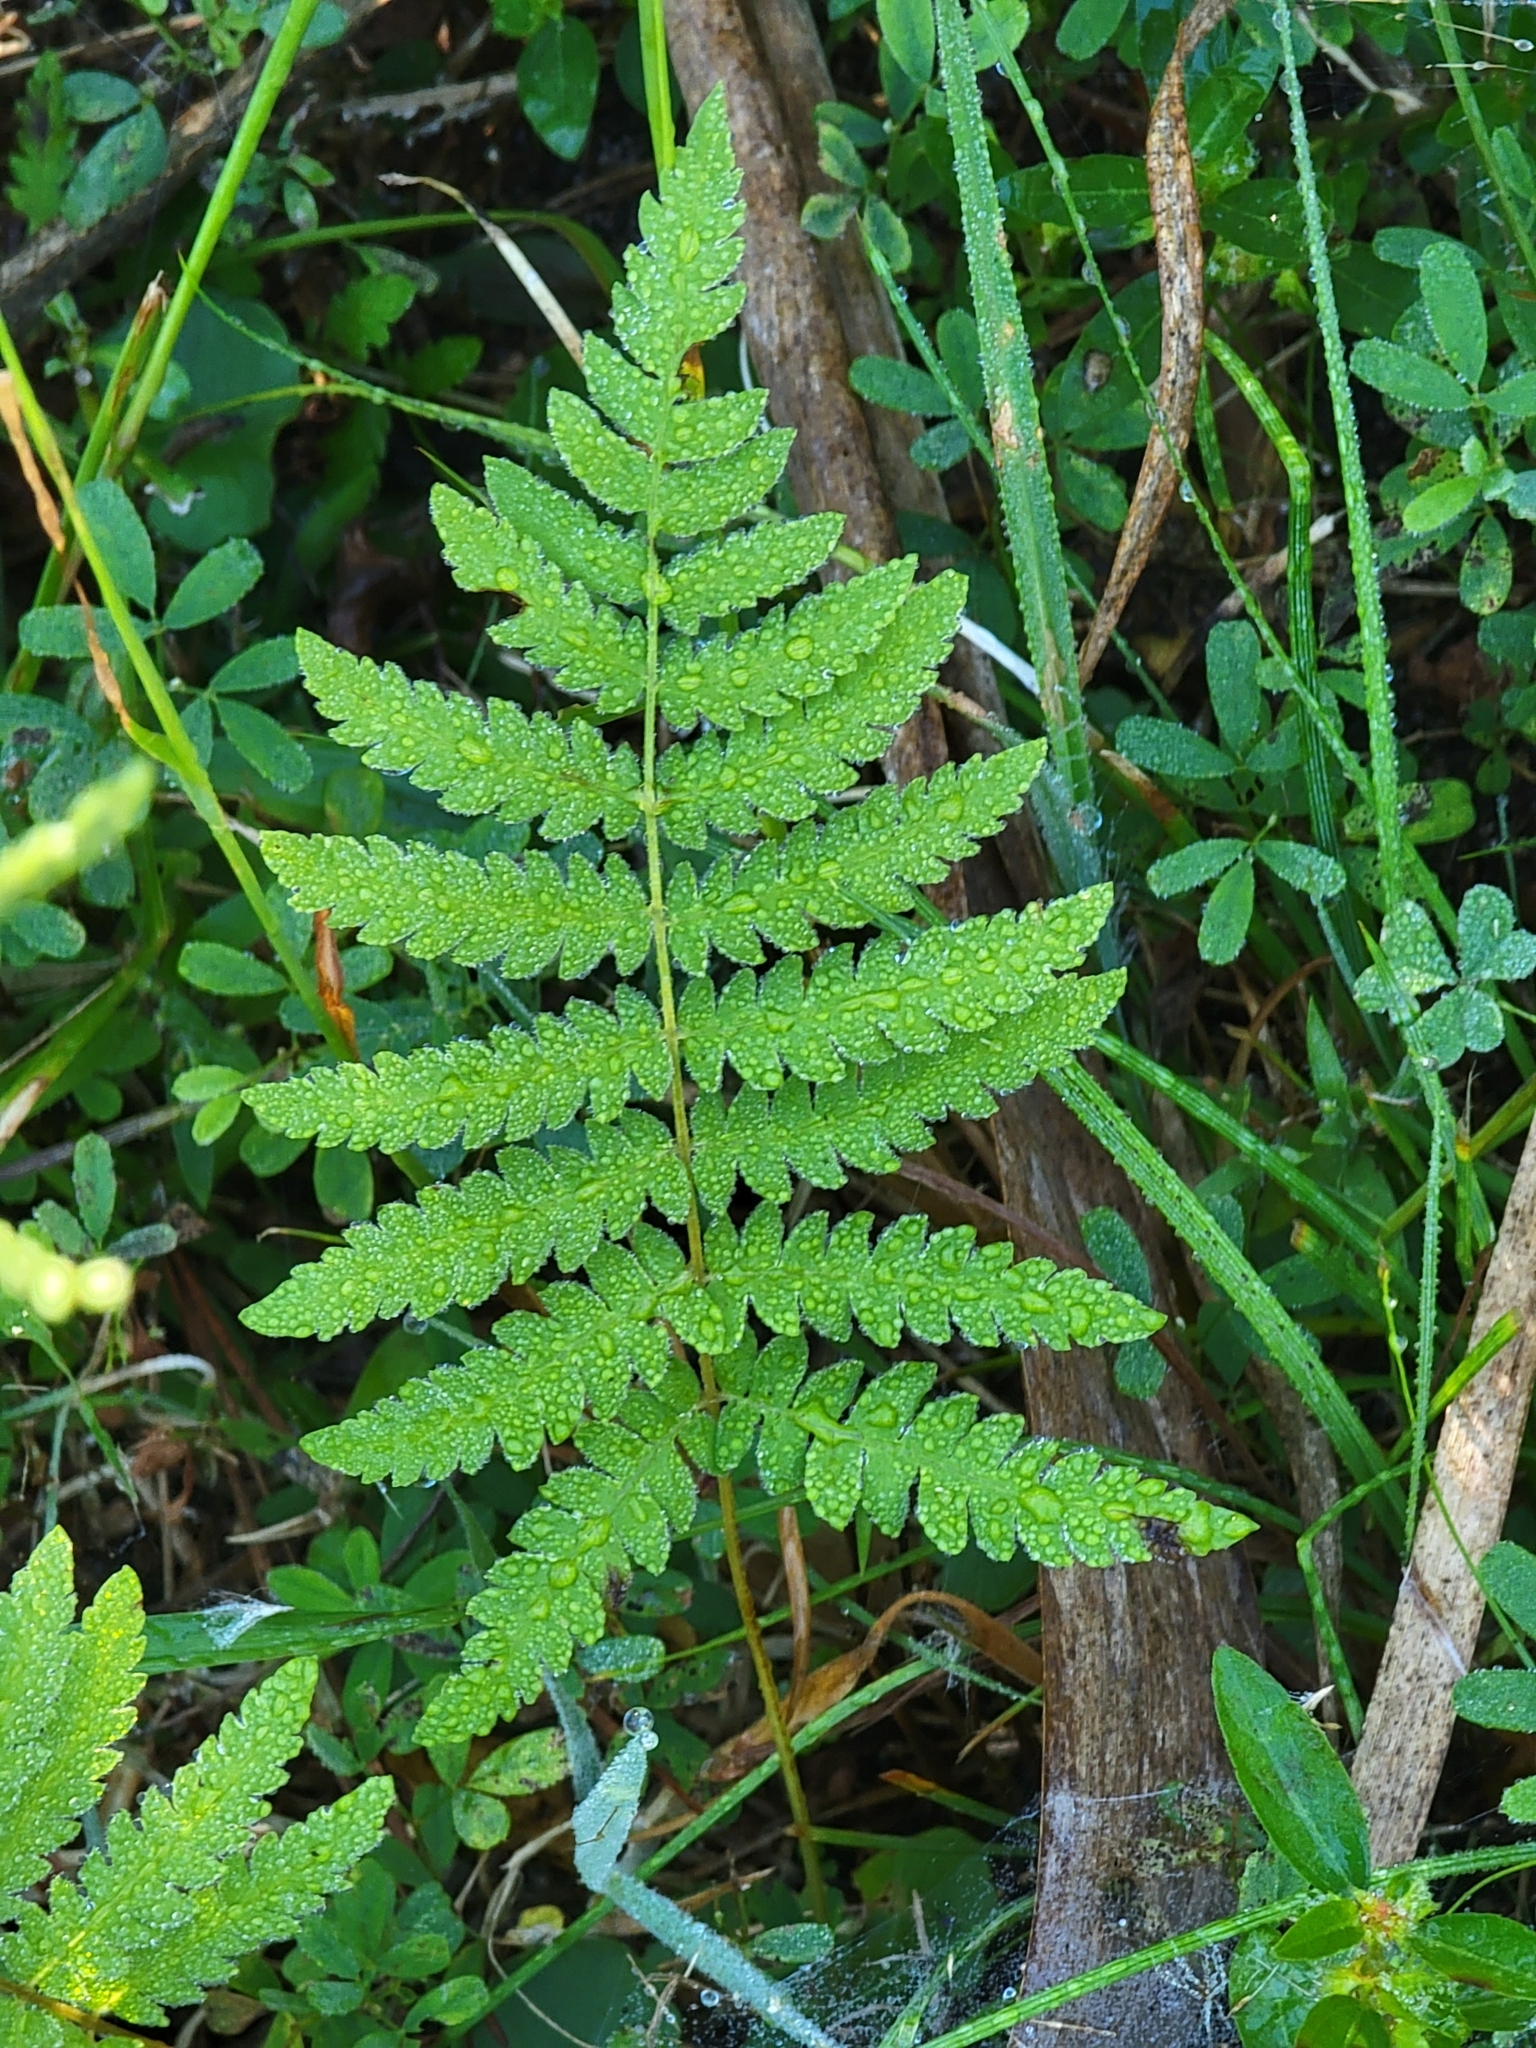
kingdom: Plantae
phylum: Tracheophyta
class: Polypodiopsida
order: Polypodiales
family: Thelypteridaceae
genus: Thelypteris
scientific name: Thelypteris palustris
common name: Marsh fern
